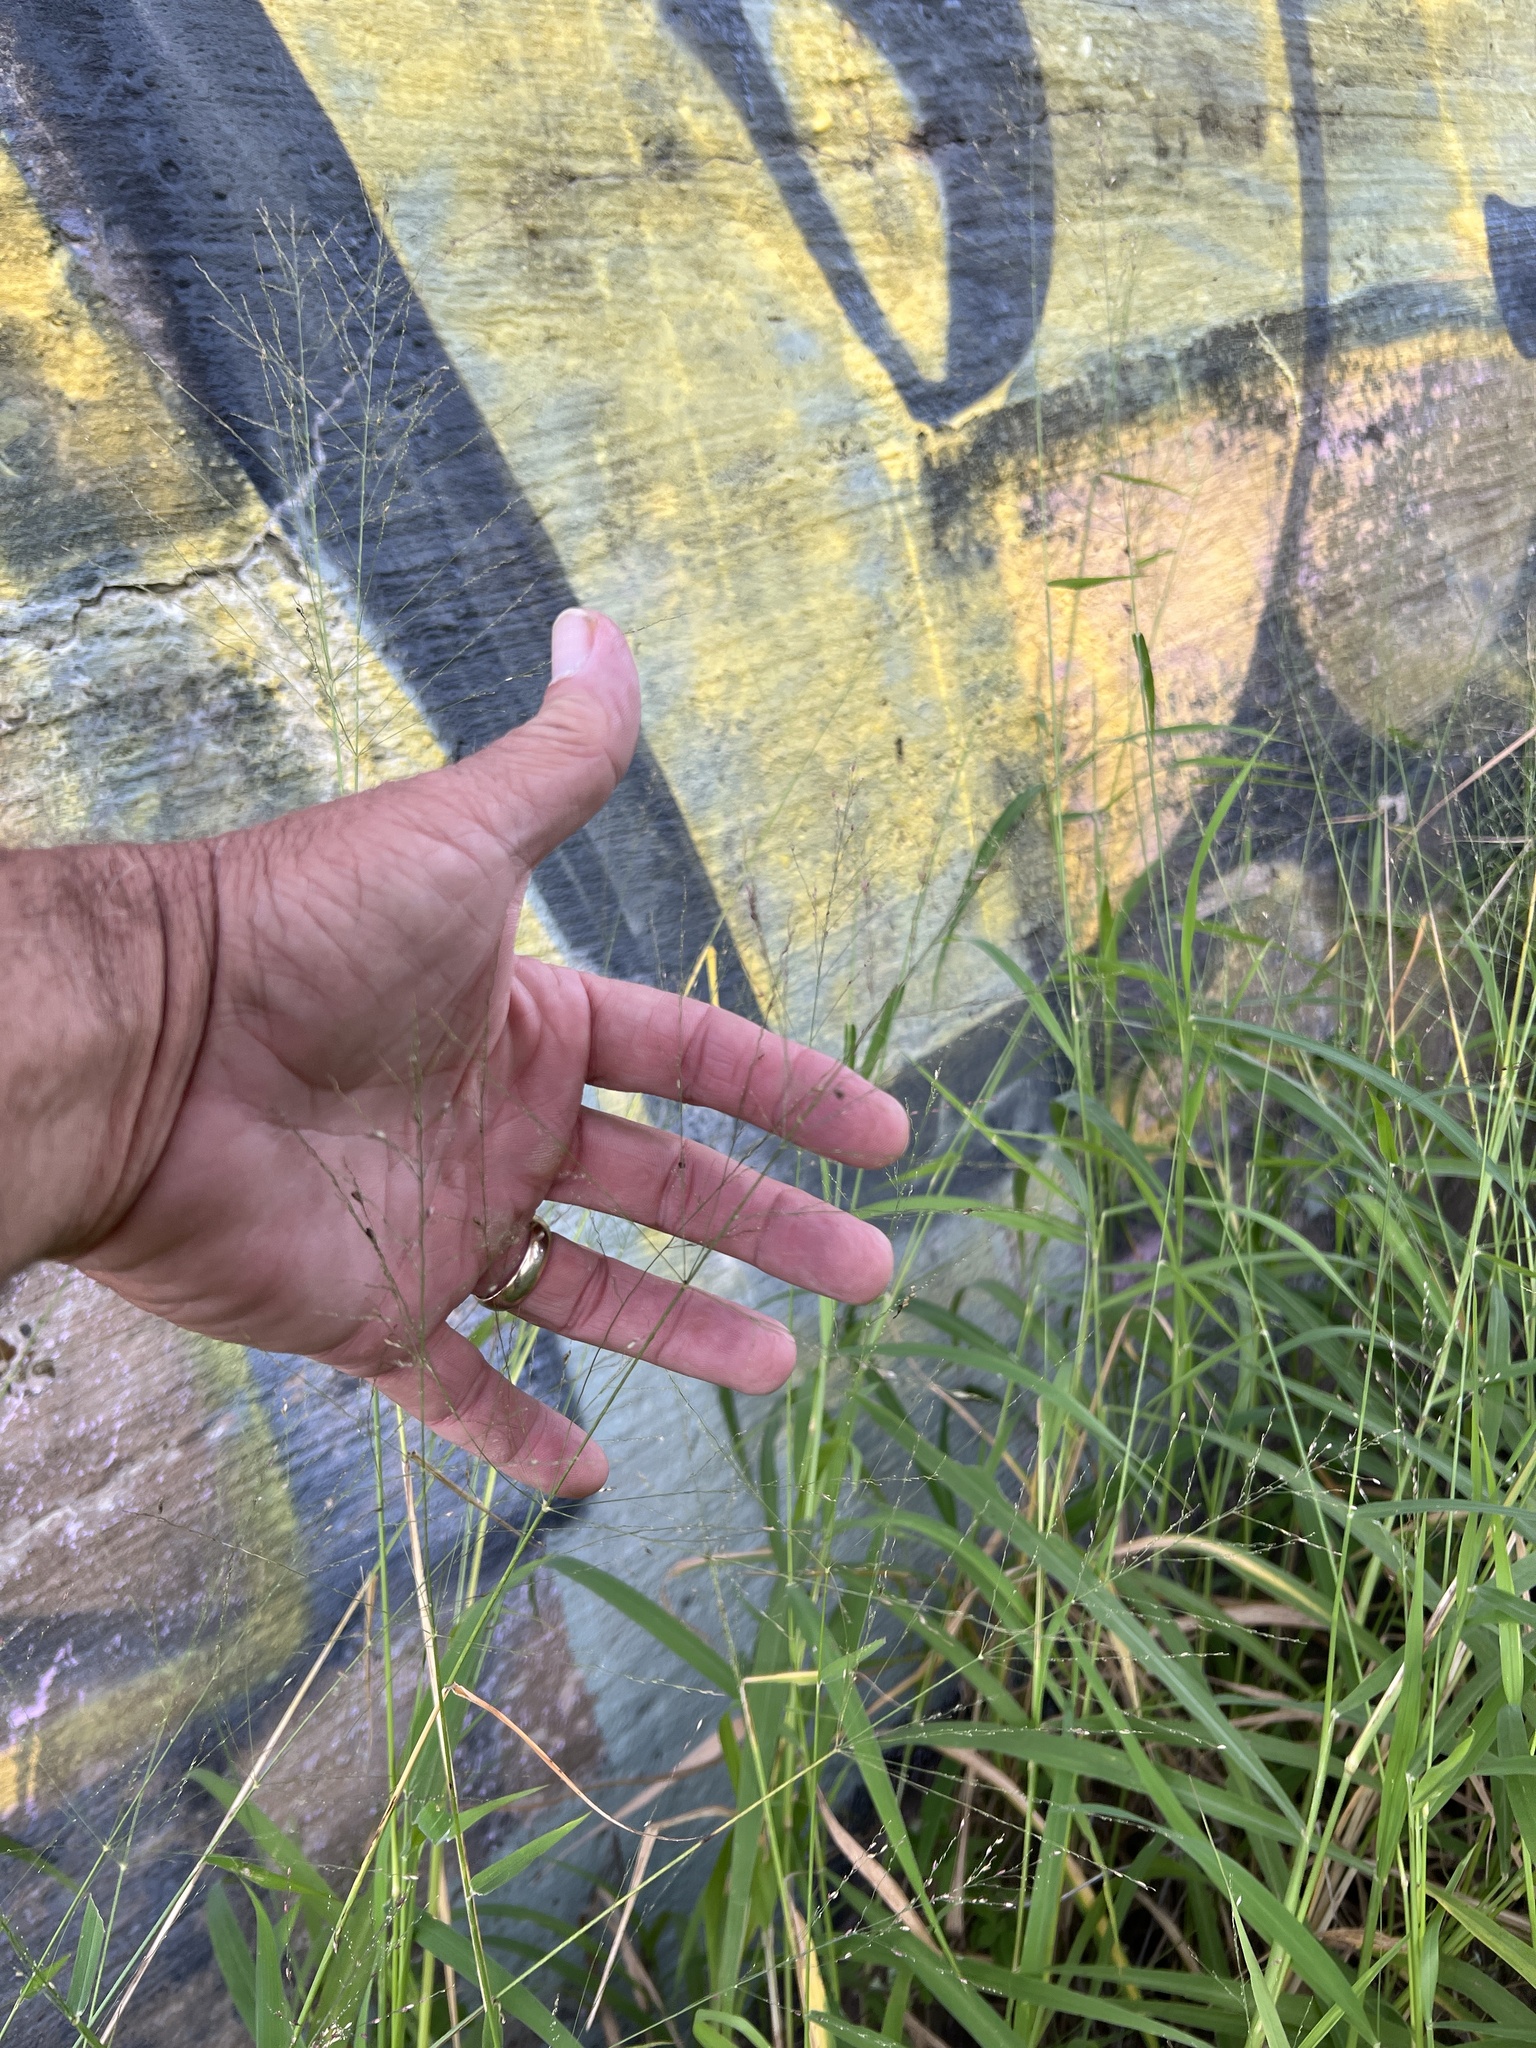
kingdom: Plantae
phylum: Tracheophyta
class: Liliopsida
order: Poales
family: Poaceae
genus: Megathyrsus
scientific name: Megathyrsus maximus
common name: Guineagrass
